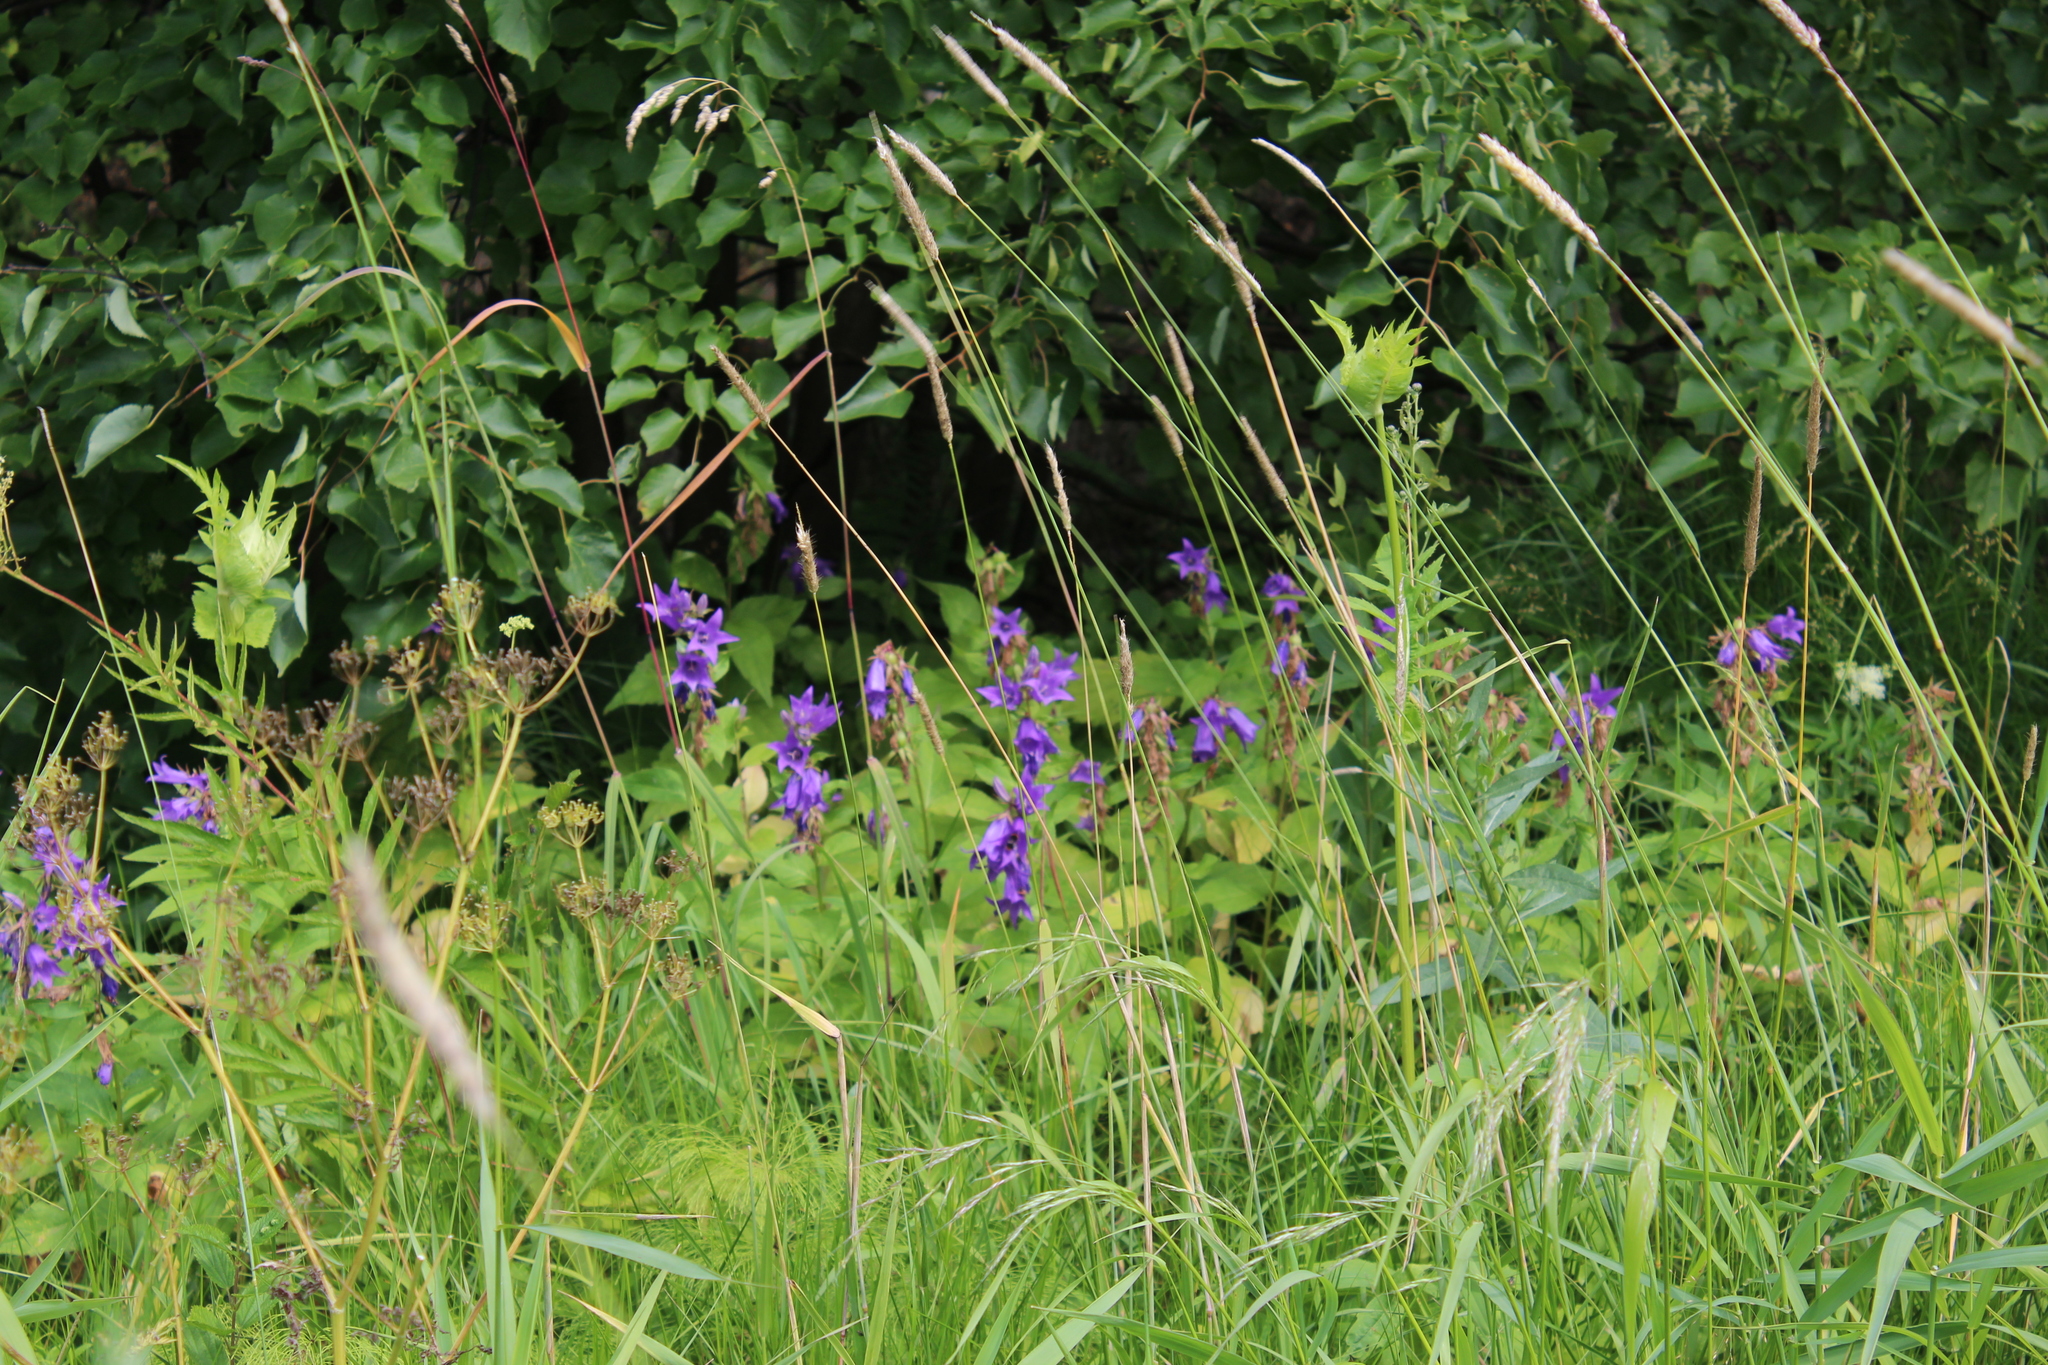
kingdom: Plantae
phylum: Tracheophyta
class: Magnoliopsida
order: Asterales
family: Campanulaceae
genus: Campanula
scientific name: Campanula latifolia
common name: Giant bellflower
